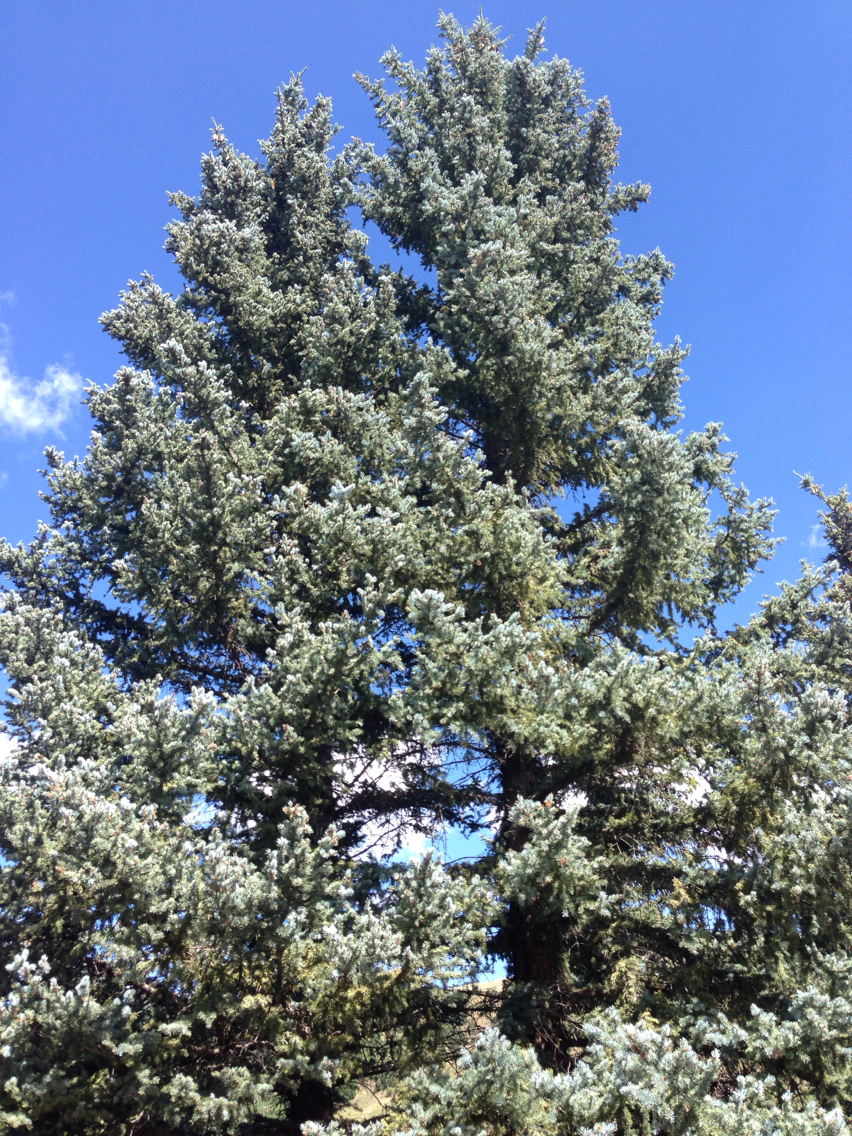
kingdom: Plantae
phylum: Tracheophyta
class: Pinopsida
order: Pinales
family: Pinaceae
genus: Picea
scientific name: Picea pungens
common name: Colorado spruce
